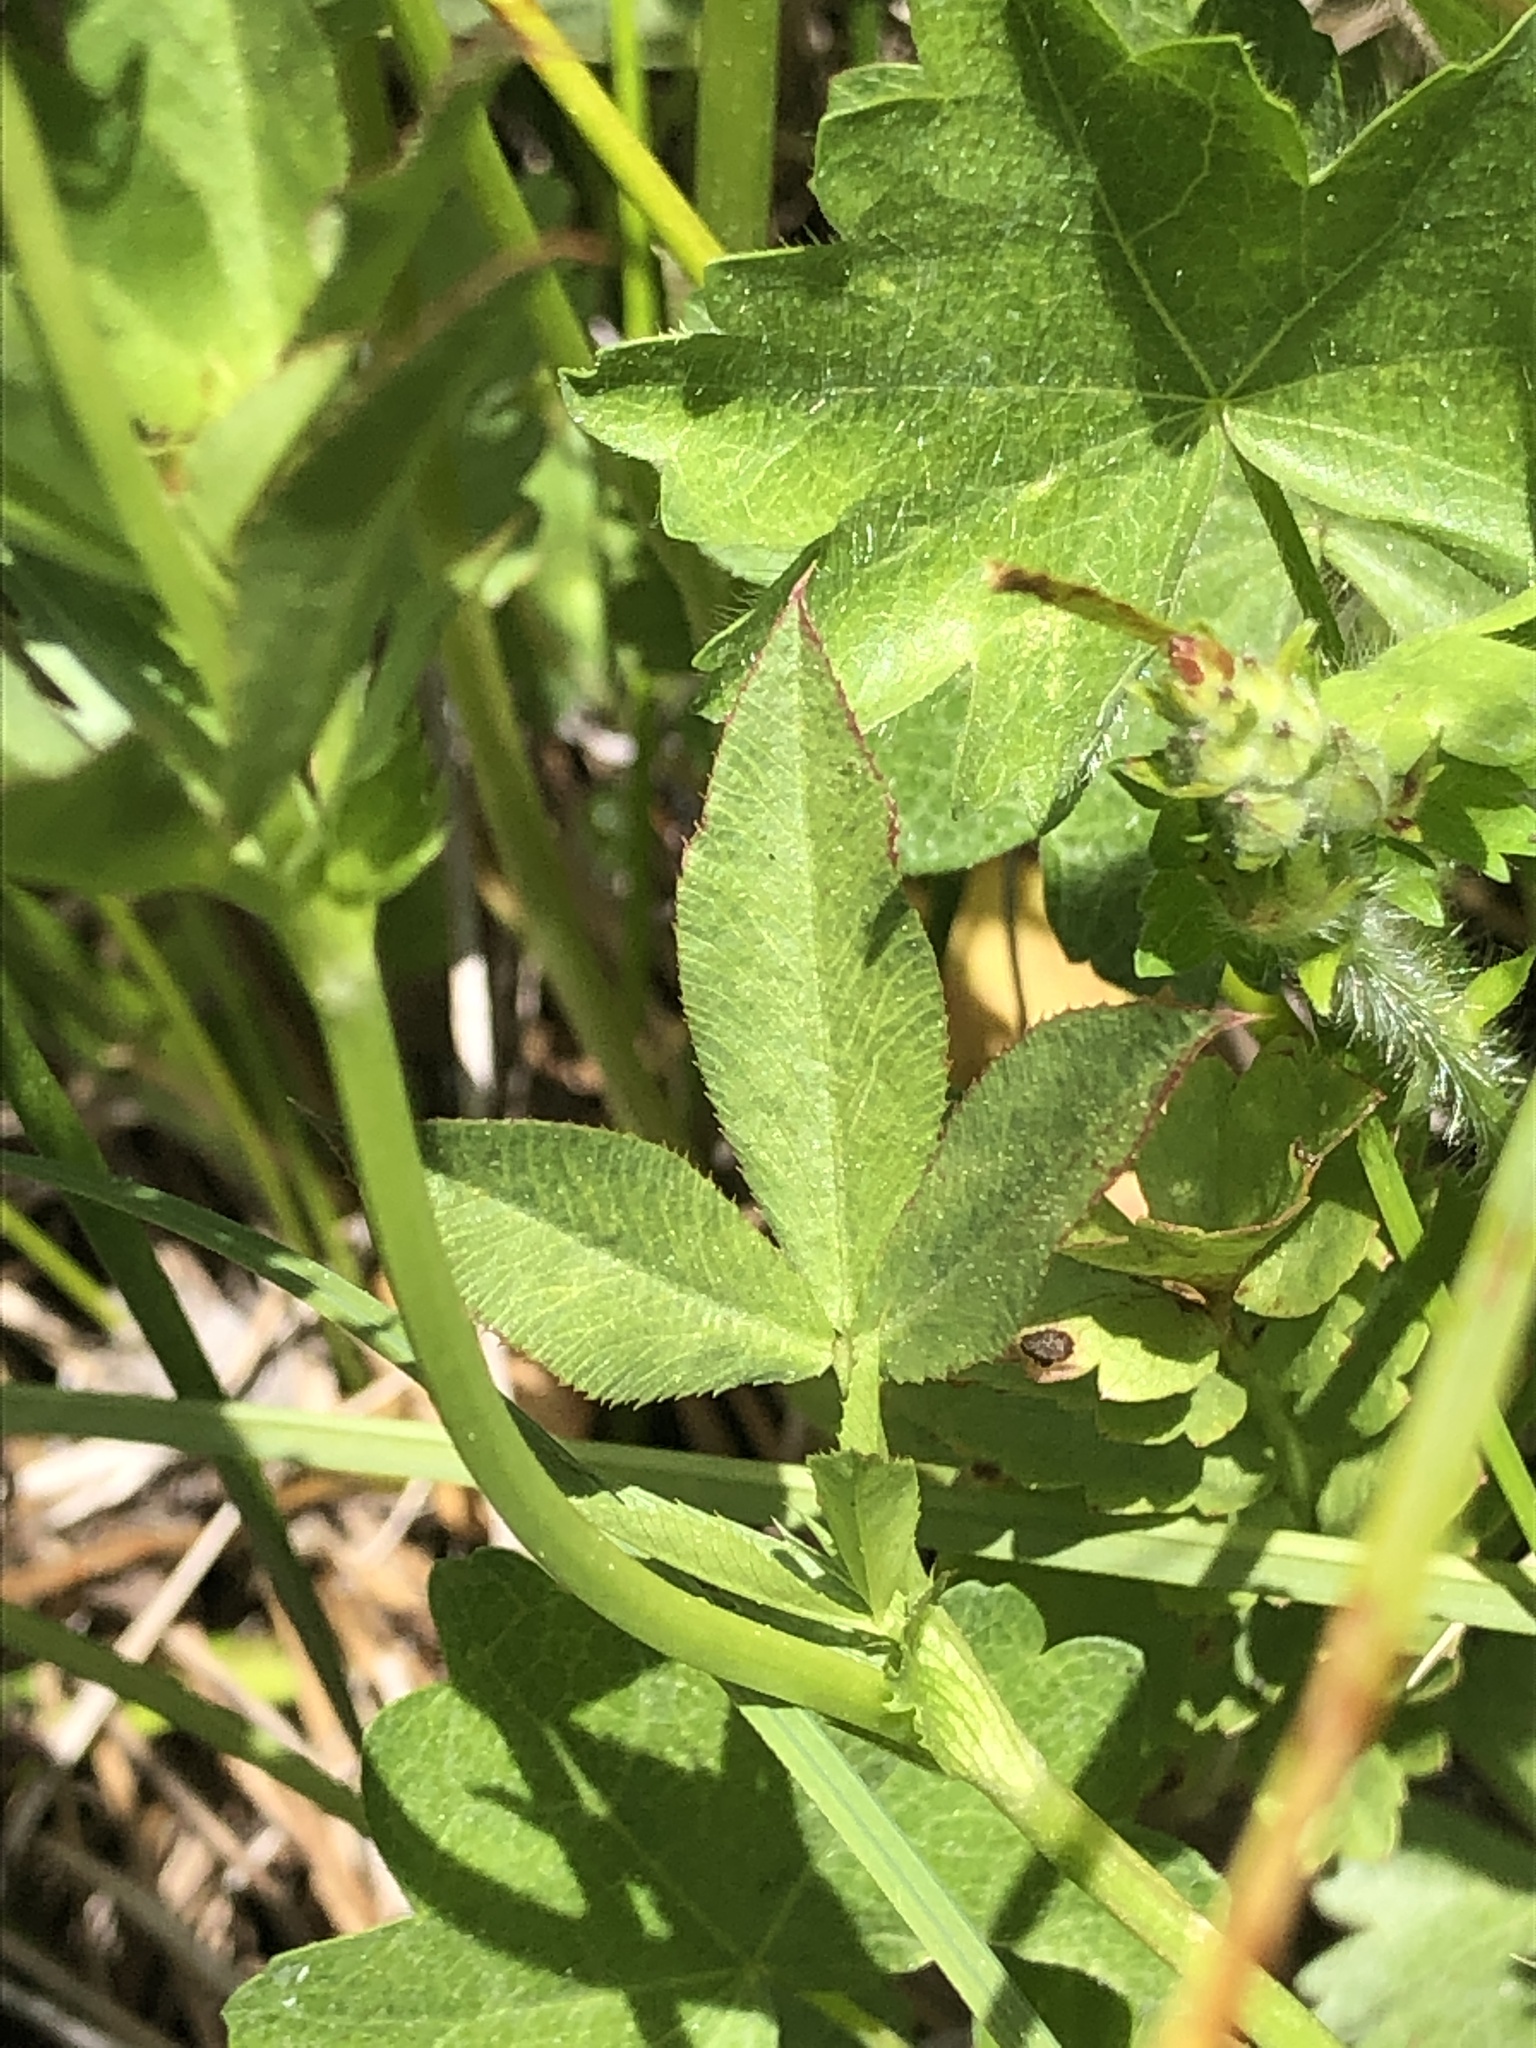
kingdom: Plantae
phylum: Tracheophyta
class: Magnoliopsida
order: Fabales
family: Fabaceae
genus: Trifolium
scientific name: Trifolium wormskioldii
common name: Springbank clover
